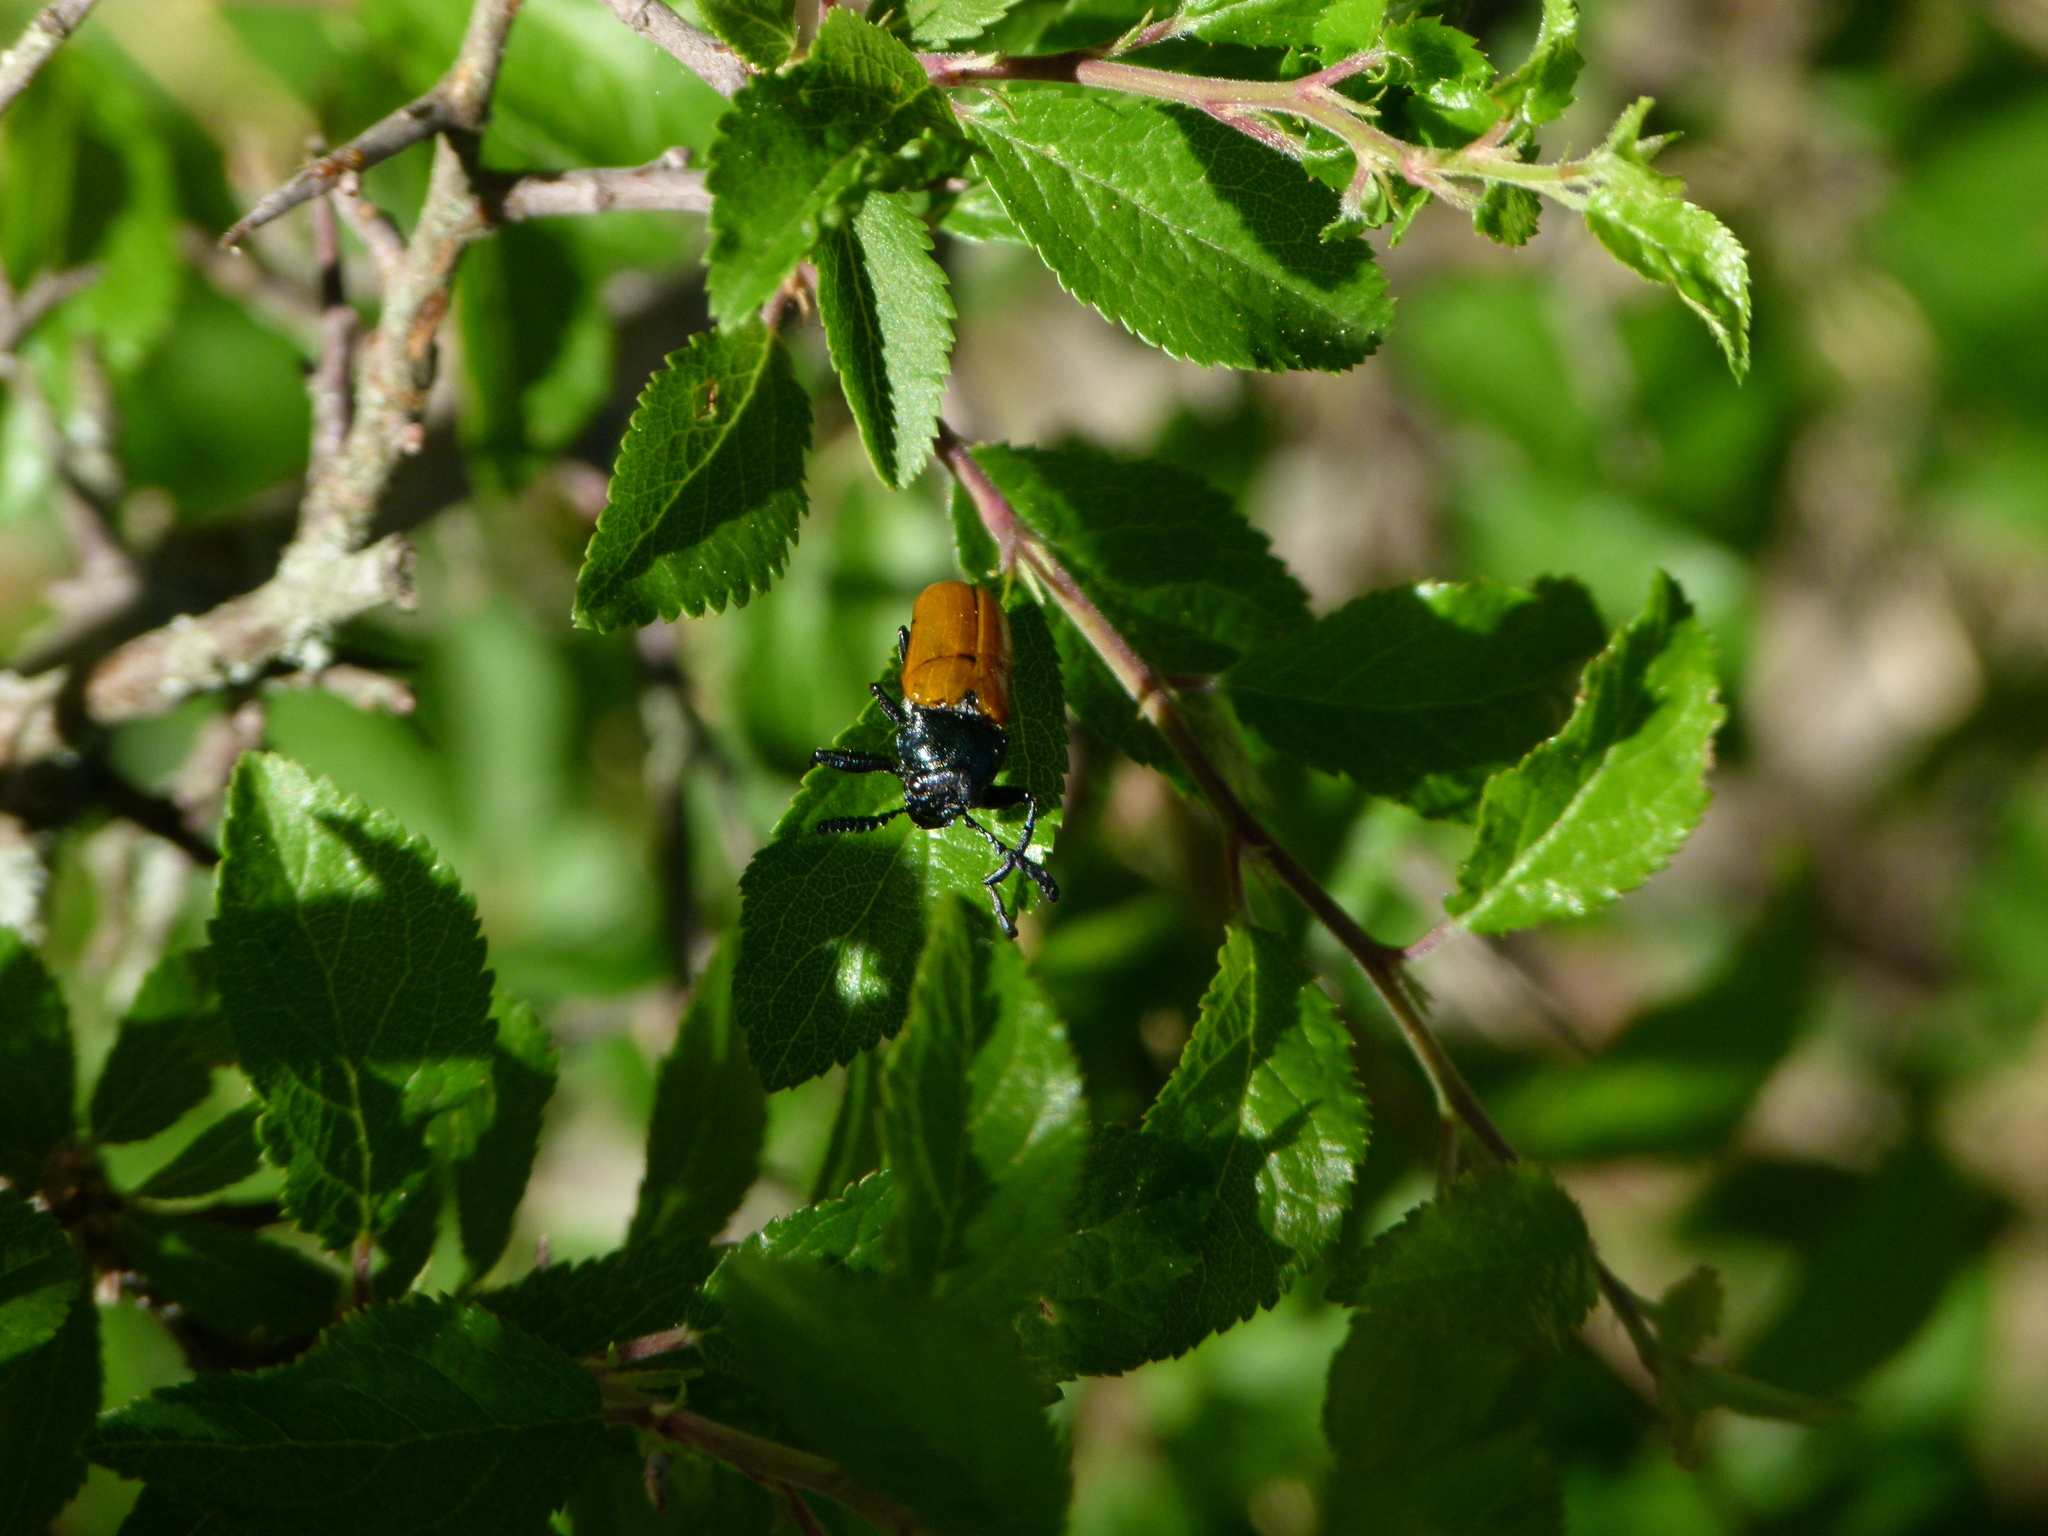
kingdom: Animalia
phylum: Arthropoda
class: Insecta
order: Coleoptera
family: Chrysomelidae
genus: Labidostomis
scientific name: Labidostomis taxicornis
